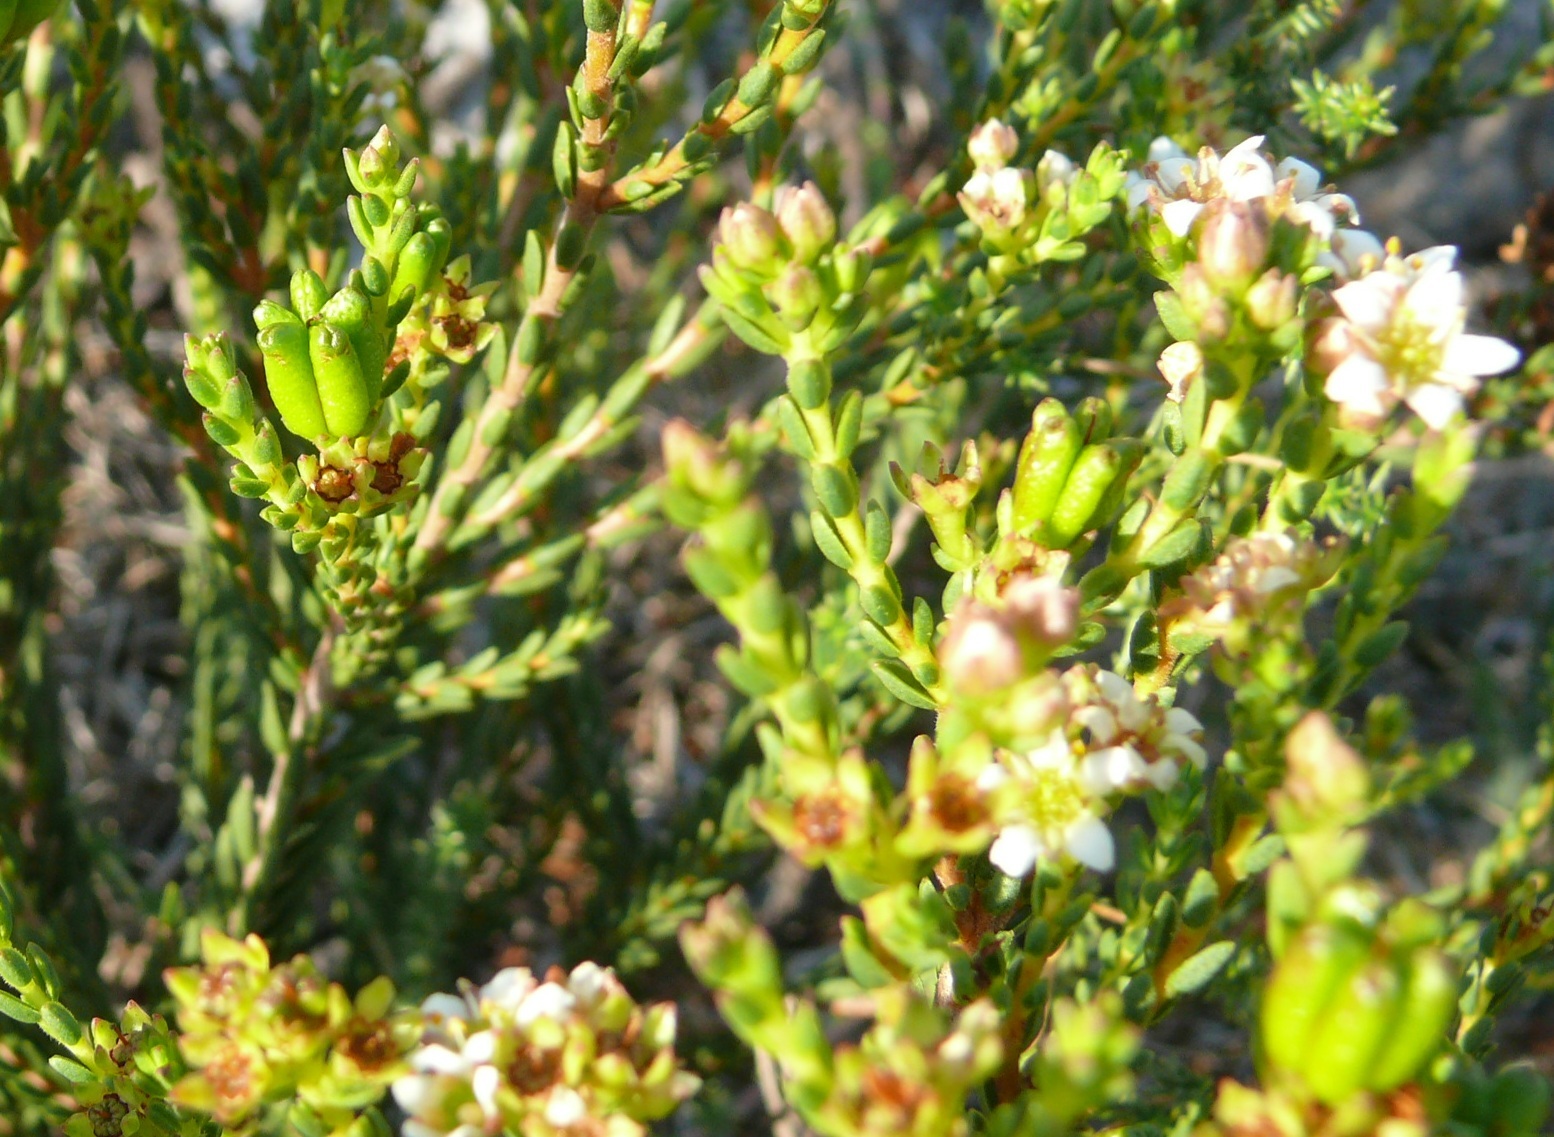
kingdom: Plantae
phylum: Tracheophyta
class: Magnoliopsida
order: Sapindales
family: Rutaceae
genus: Diosma
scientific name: Diosma oppositifolia
